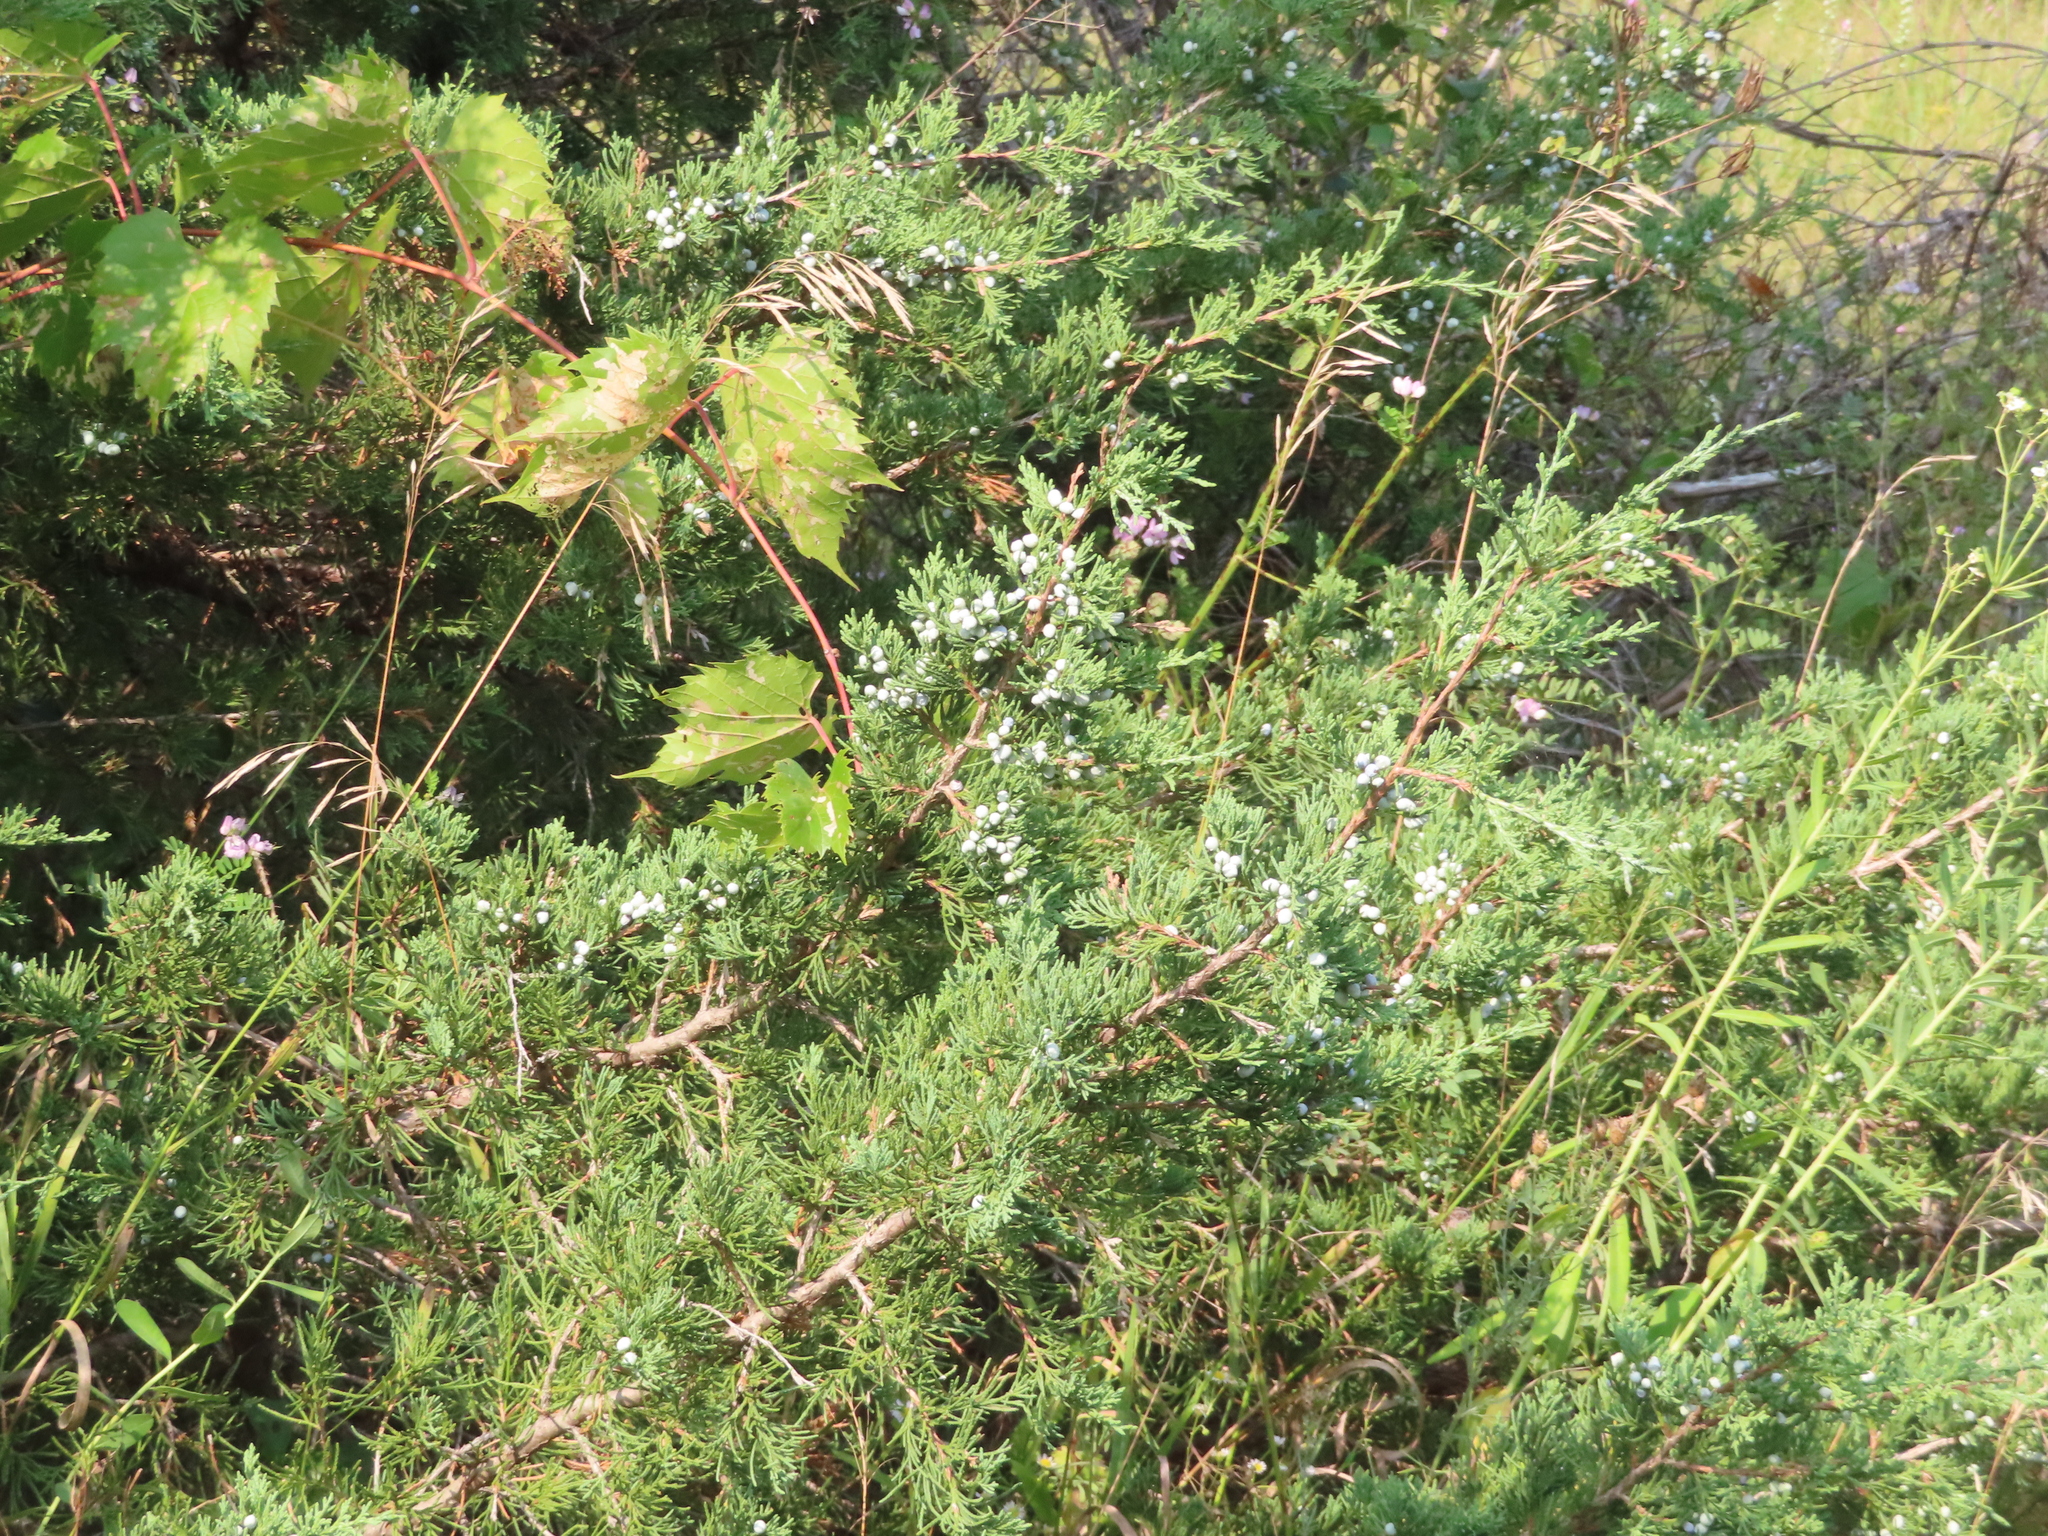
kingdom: Plantae
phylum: Tracheophyta
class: Pinopsida
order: Pinales
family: Cupressaceae
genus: Juniperus
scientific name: Juniperus virginiana
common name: Red juniper
